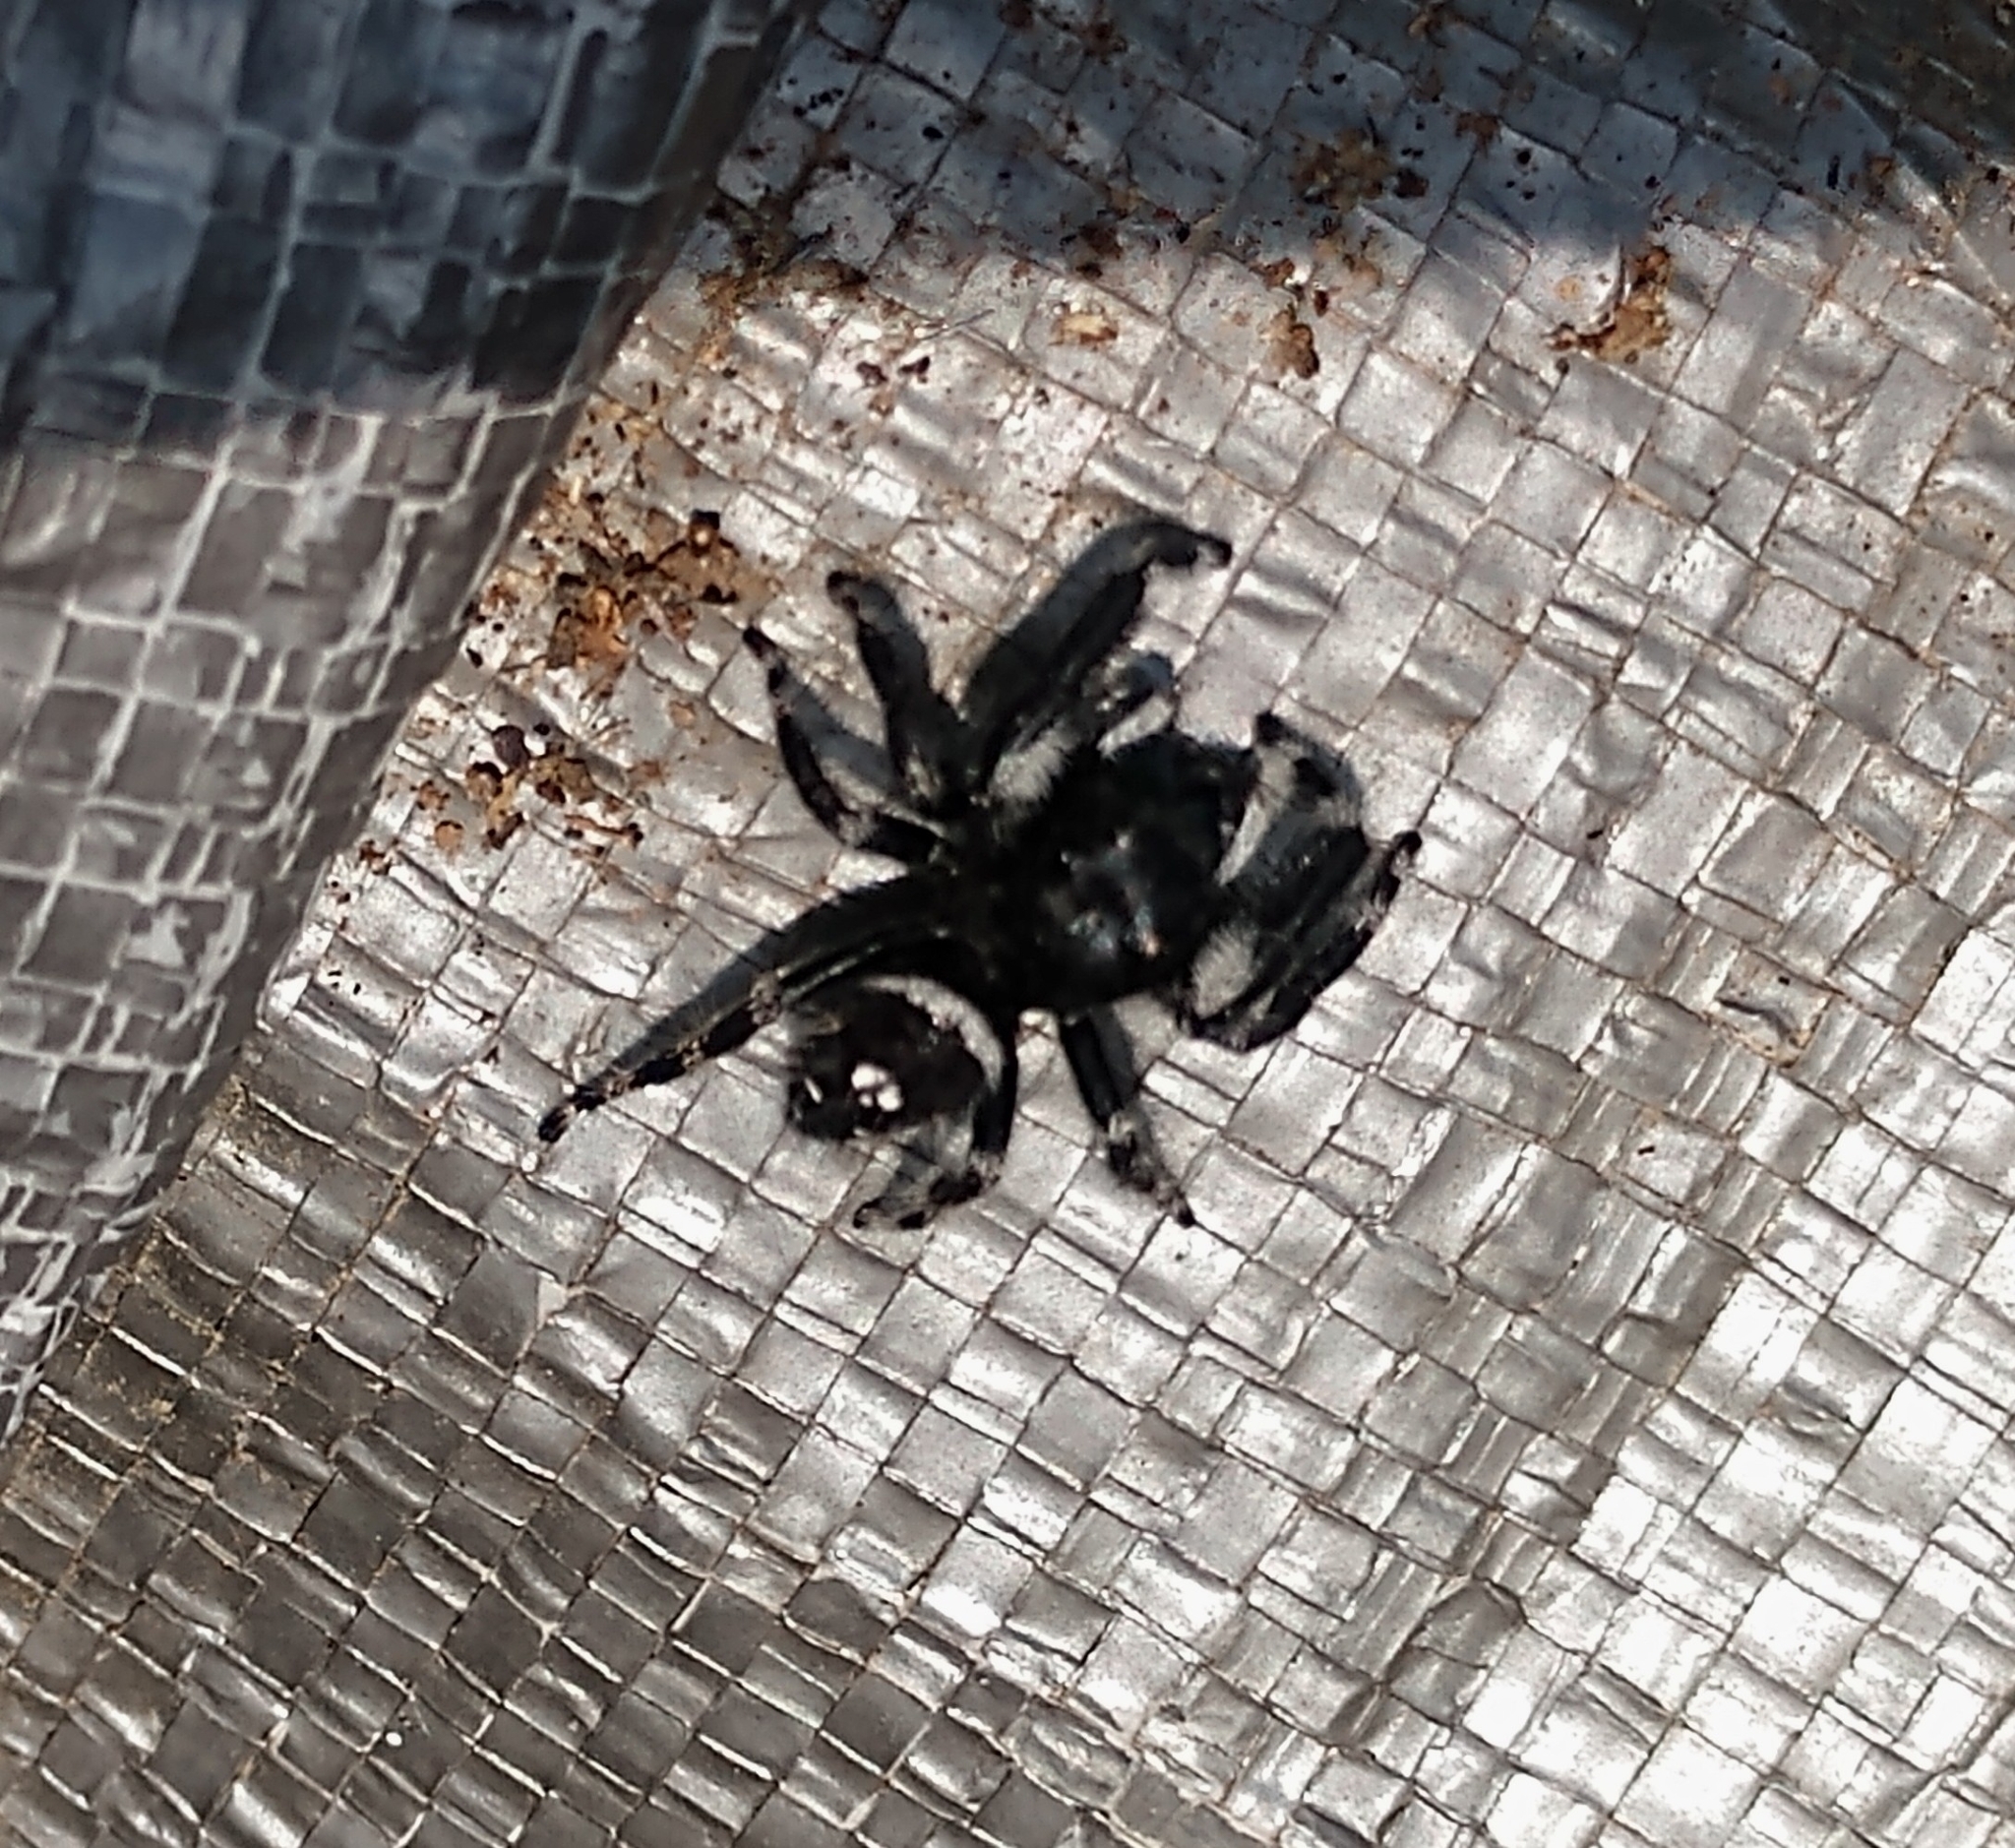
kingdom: Animalia
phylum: Arthropoda
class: Arachnida
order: Araneae
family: Salticidae
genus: Phidippus
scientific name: Phidippus audax
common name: Bold jumper
